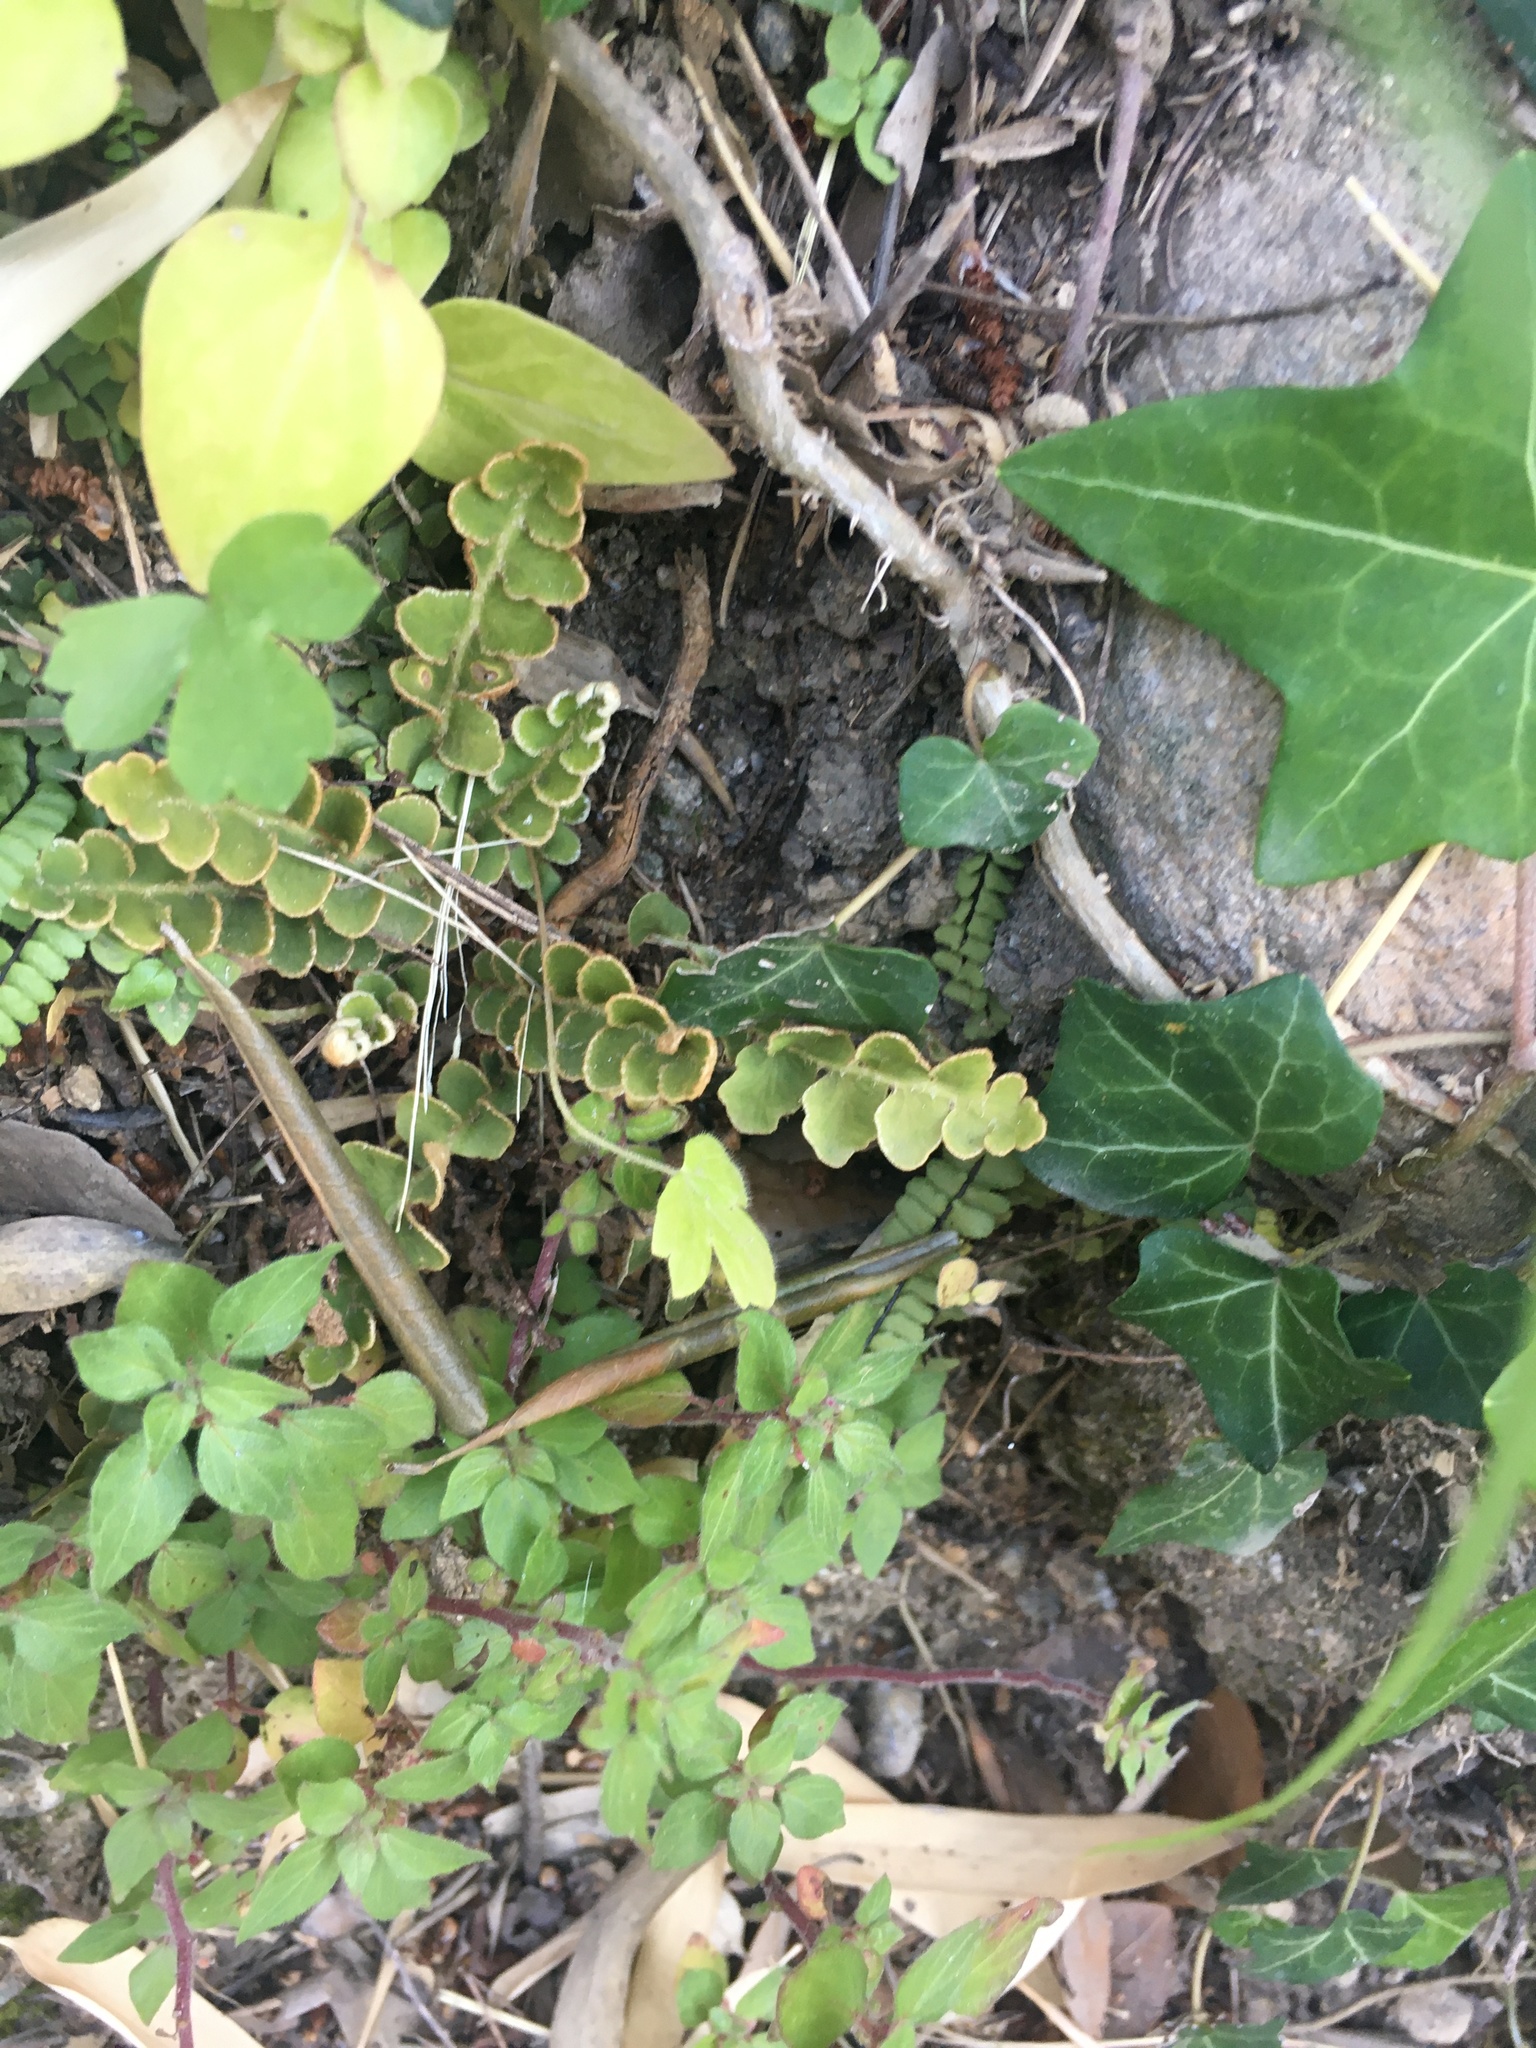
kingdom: Plantae
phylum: Tracheophyta
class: Polypodiopsida
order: Polypodiales
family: Aspleniaceae
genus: Asplenium
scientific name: Asplenium ceterach
